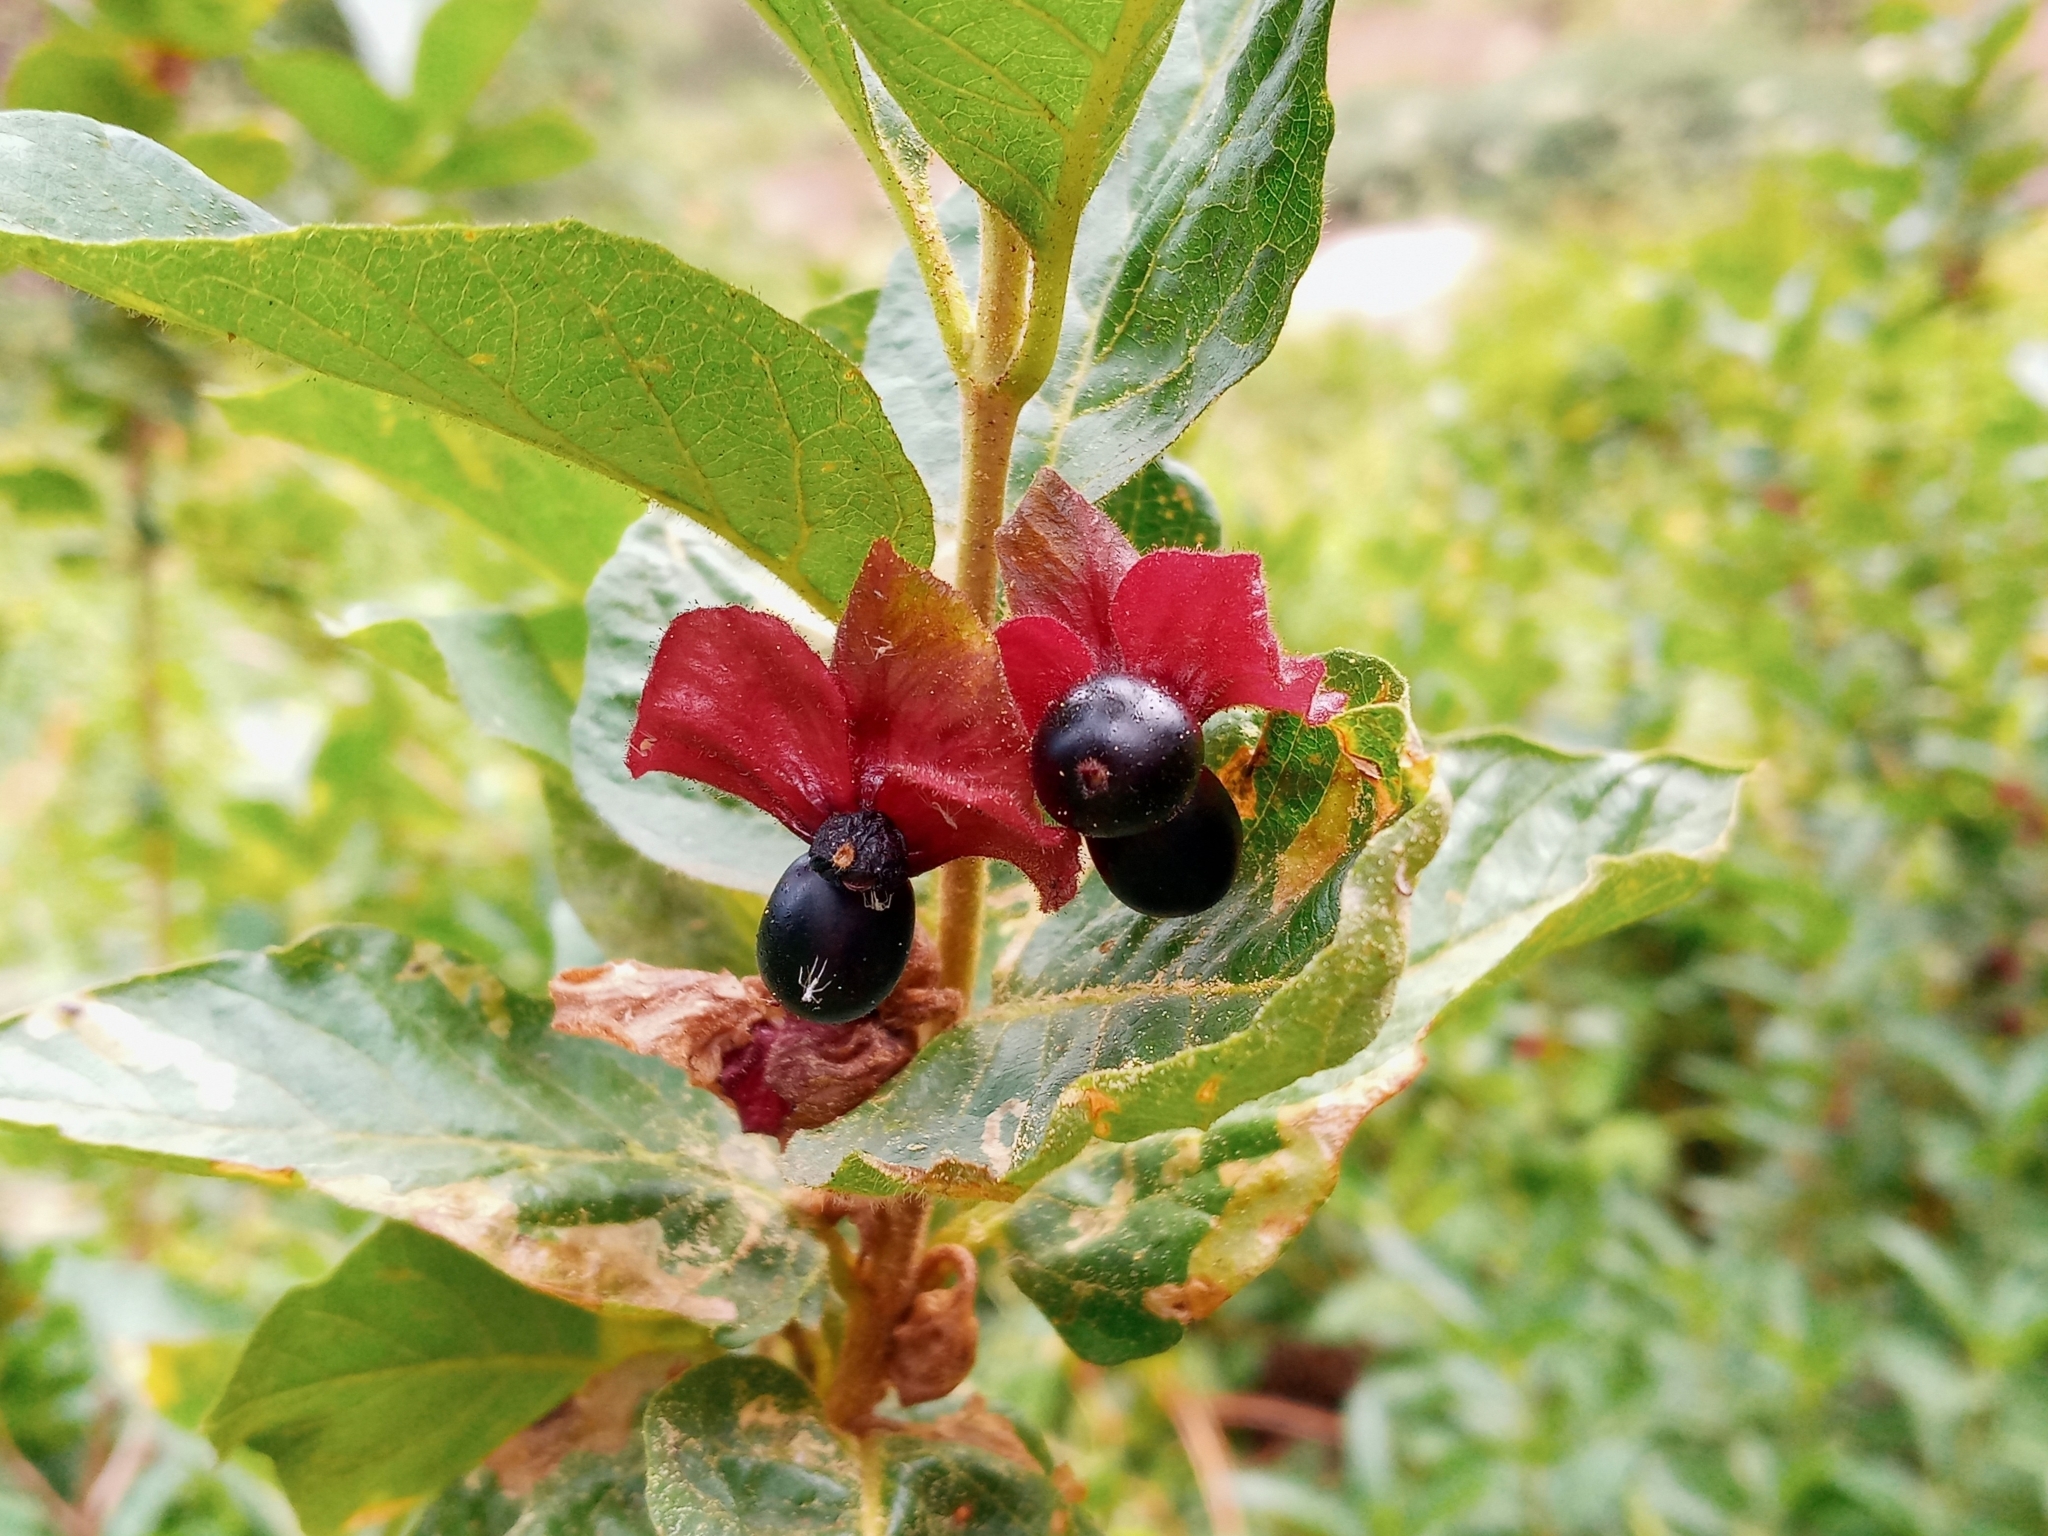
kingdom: Plantae
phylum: Tracheophyta
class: Magnoliopsida
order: Dipsacales
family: Caprifoliaceae
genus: Lonicera
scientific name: Lonicera involucrata
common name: Californian honeysuckle
